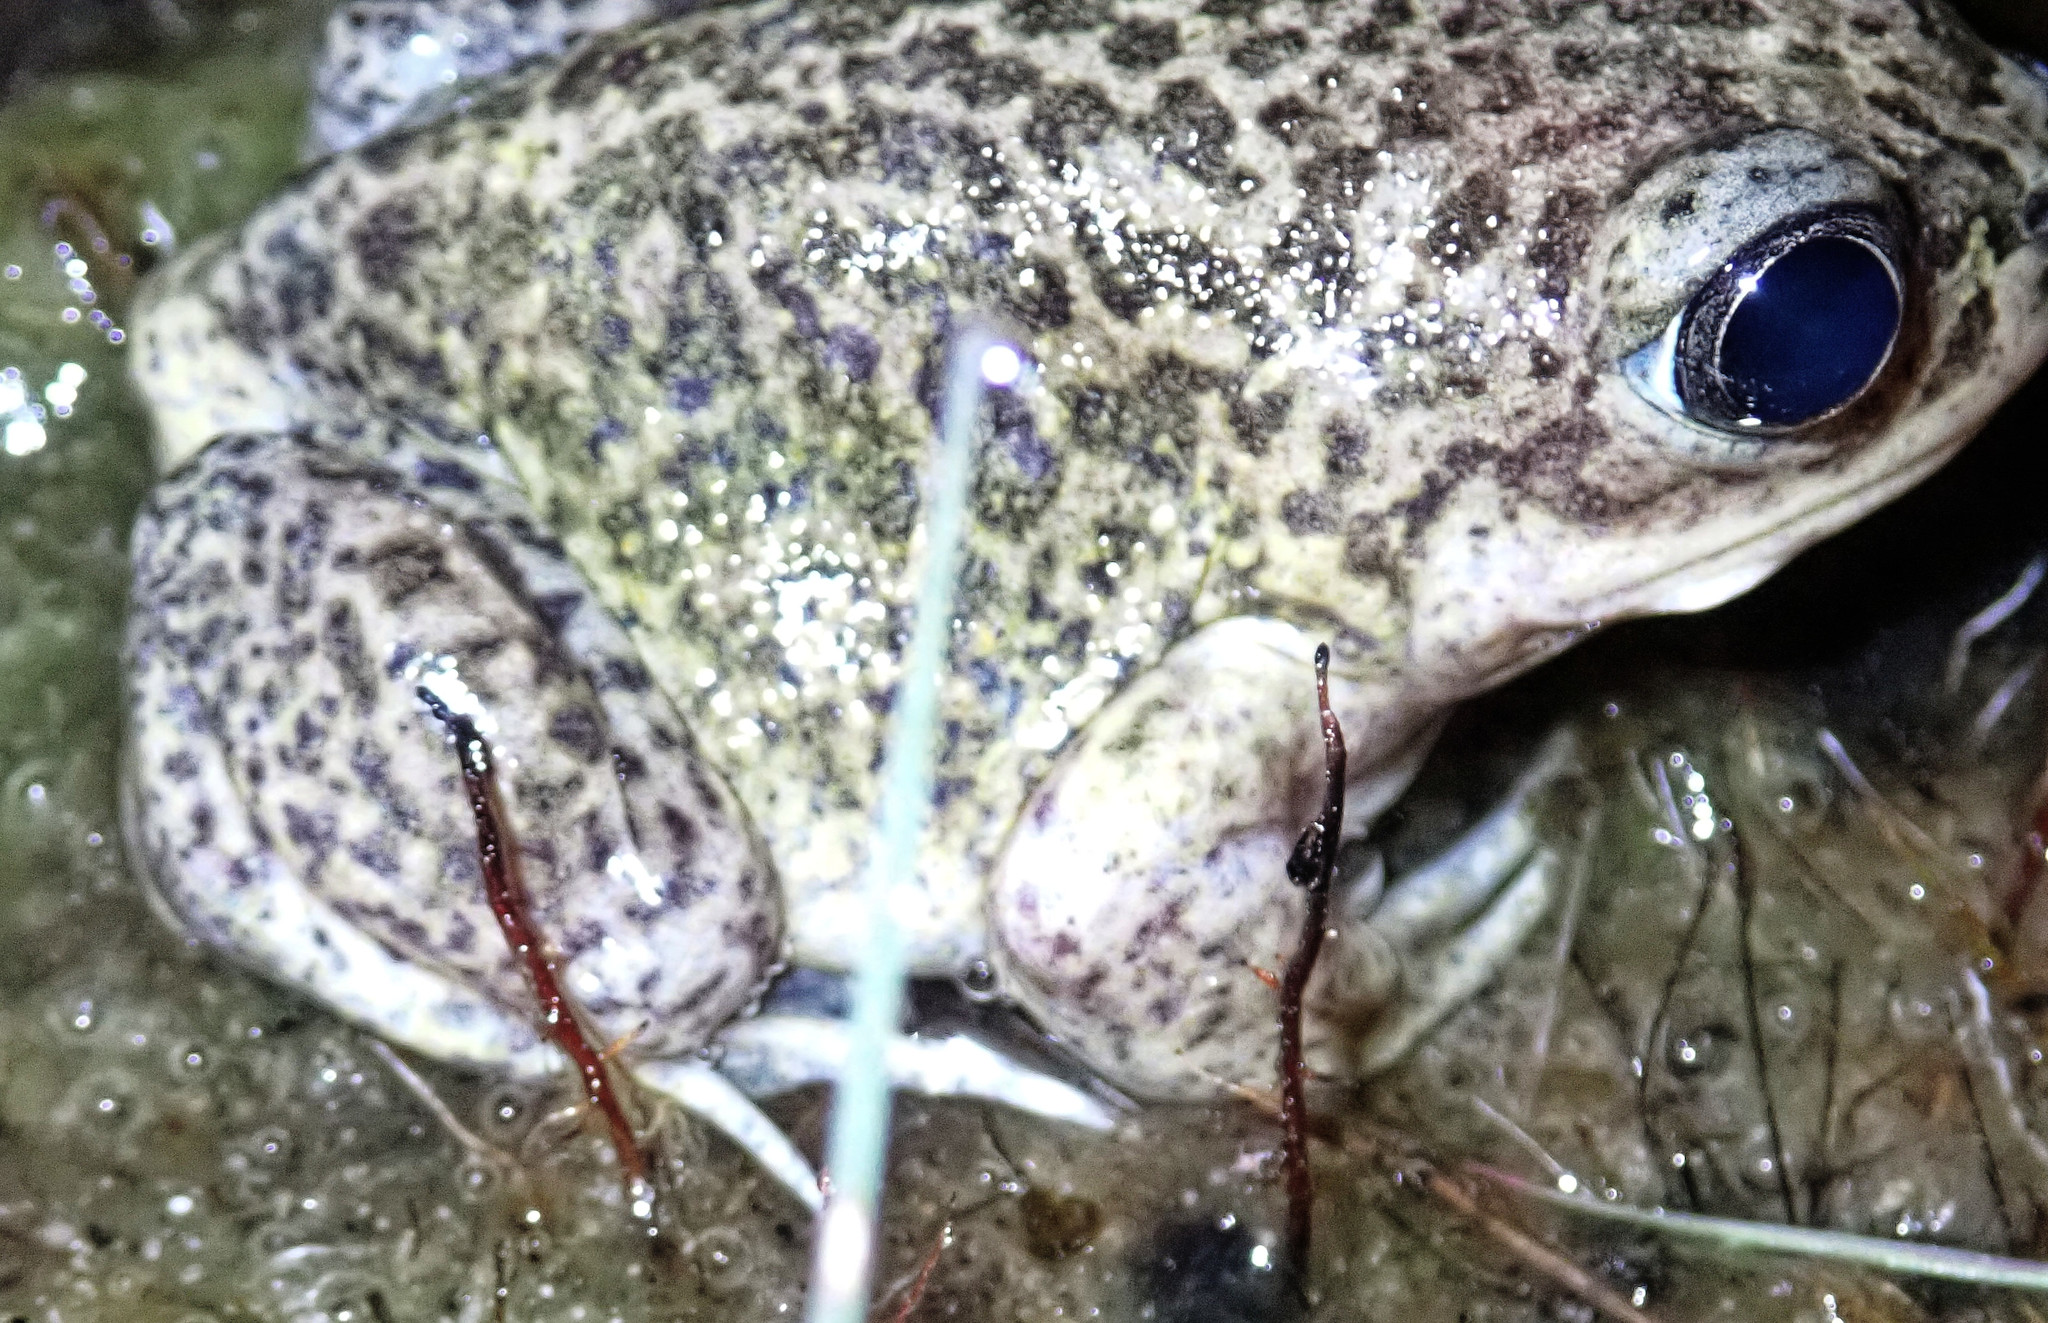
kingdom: Animalia
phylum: Chordata
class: Amphibia
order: Anura
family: Pelobatidae
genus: Pelobates
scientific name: Pelobates cultripes
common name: Western spadefoot
